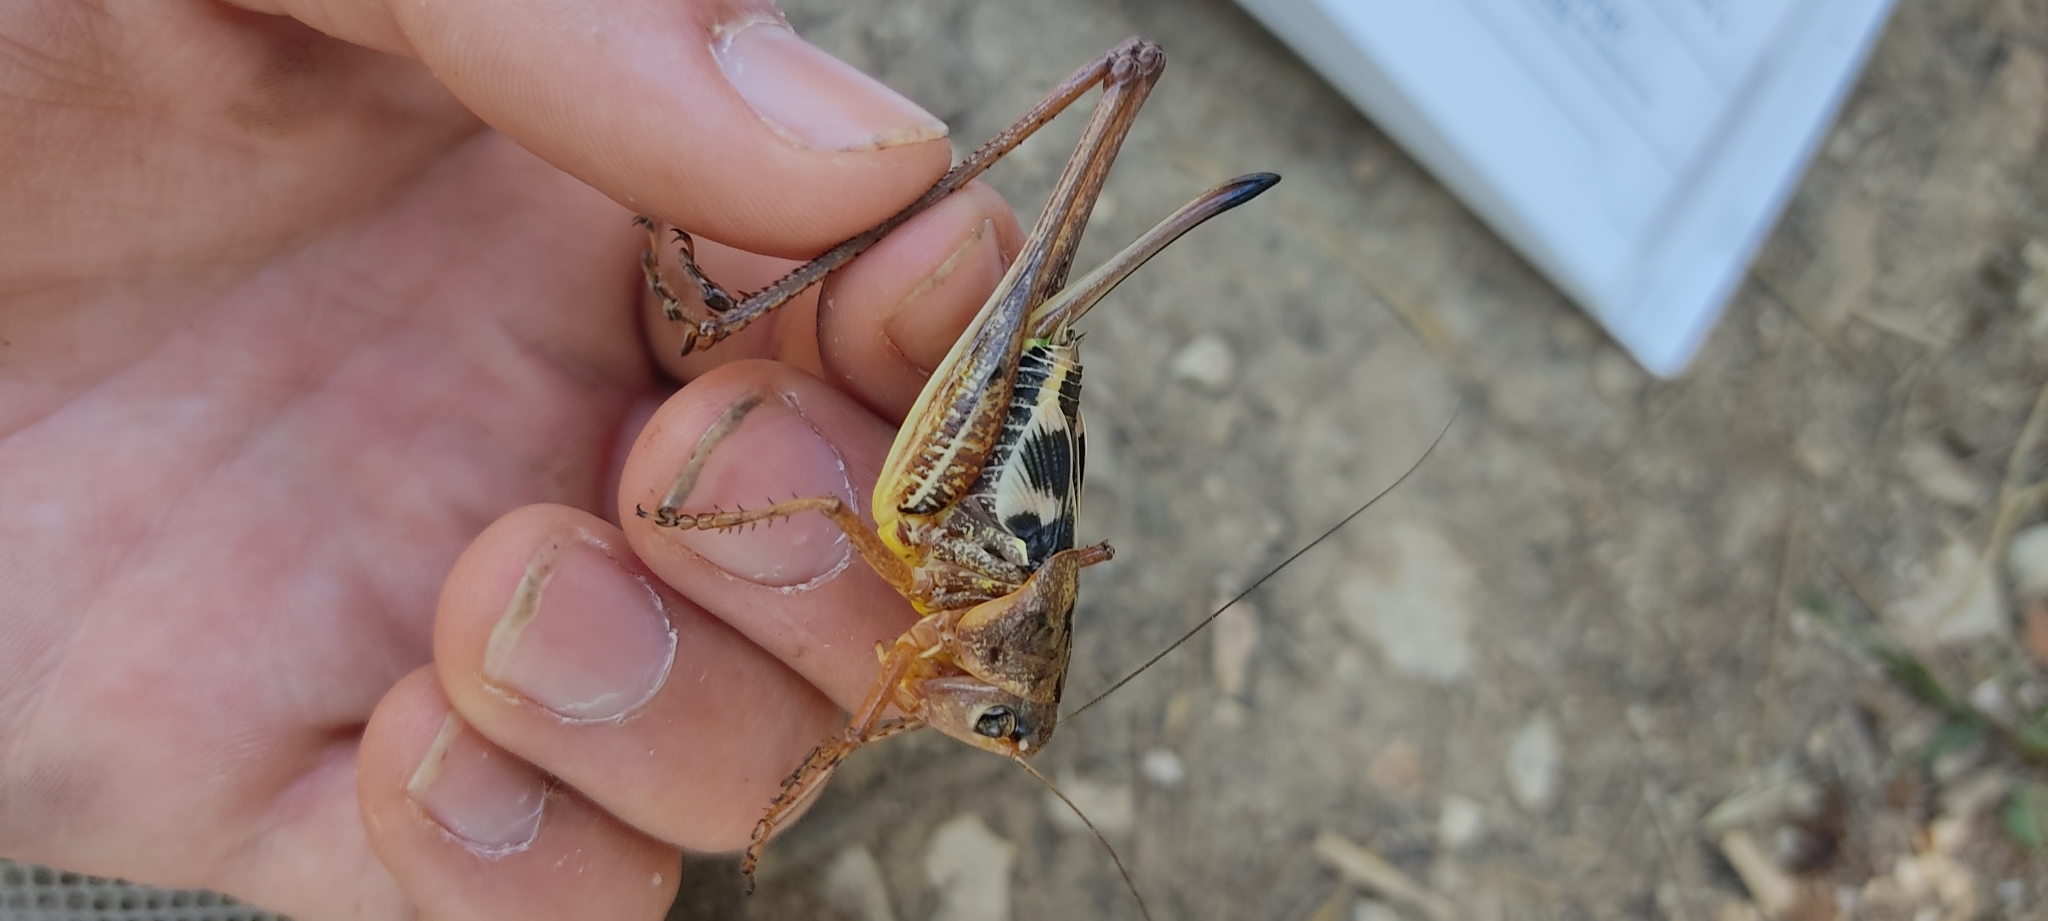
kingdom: Animalia
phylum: Arthropoda
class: Insecta
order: Orthoptera
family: Tettigoniidae
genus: Decticus
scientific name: Decticus albifrons
